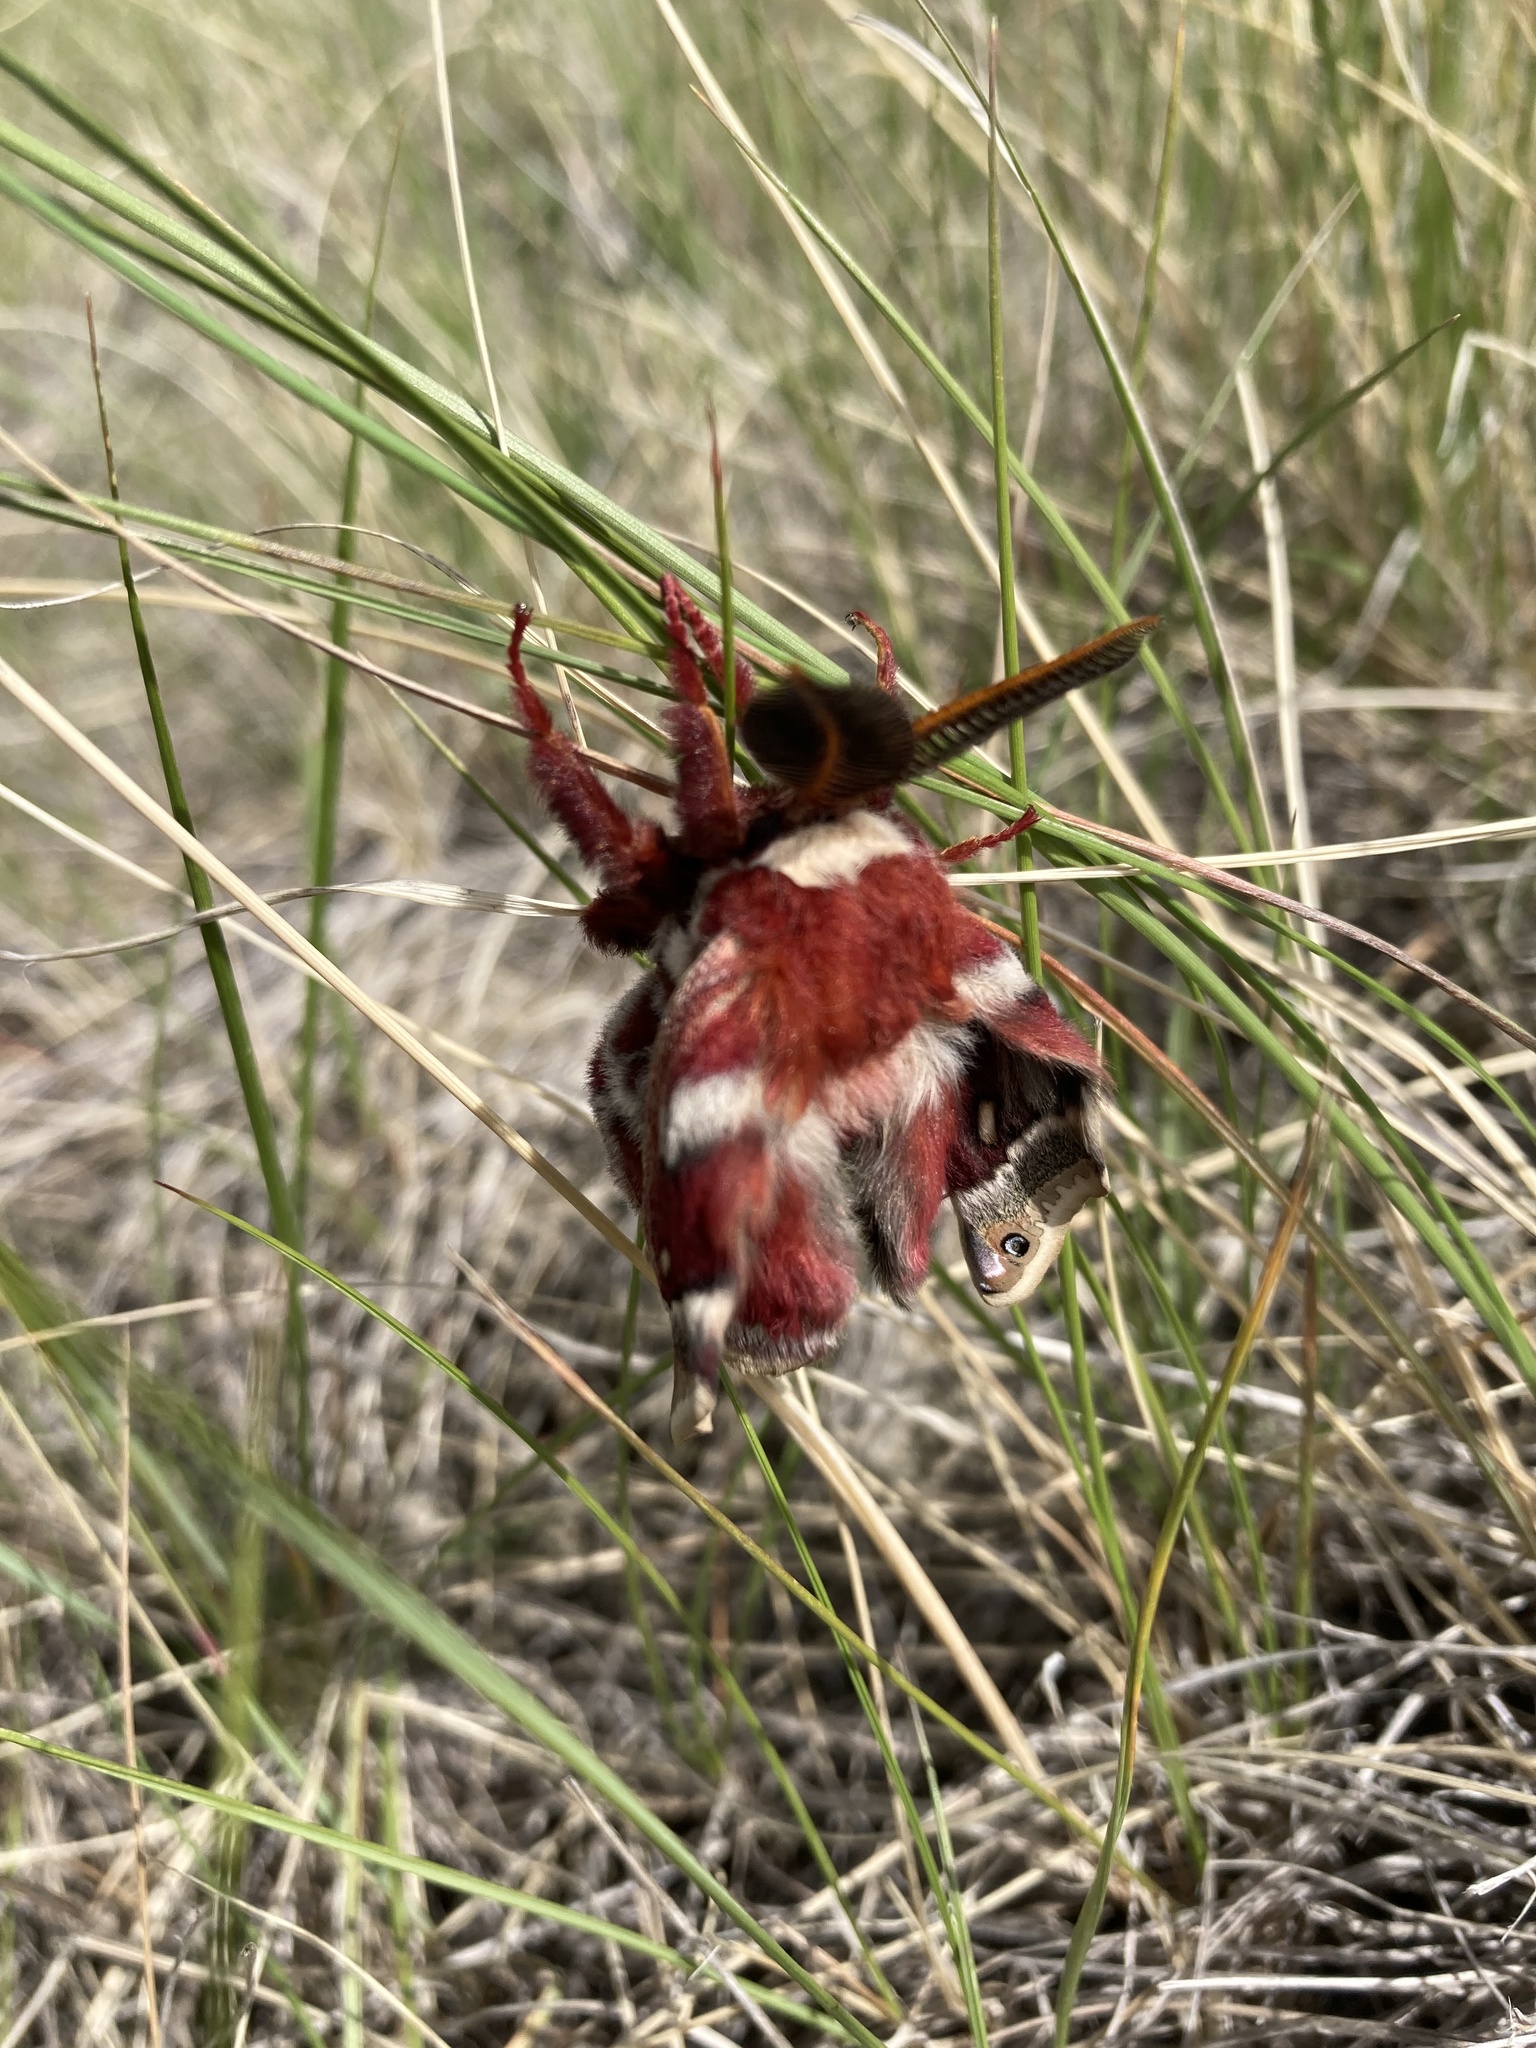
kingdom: Animalia
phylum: Arthropoda
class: Insecta
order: Lepidoptera
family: Saturniidae
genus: Hyalophora
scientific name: Hyalophora gloveri
